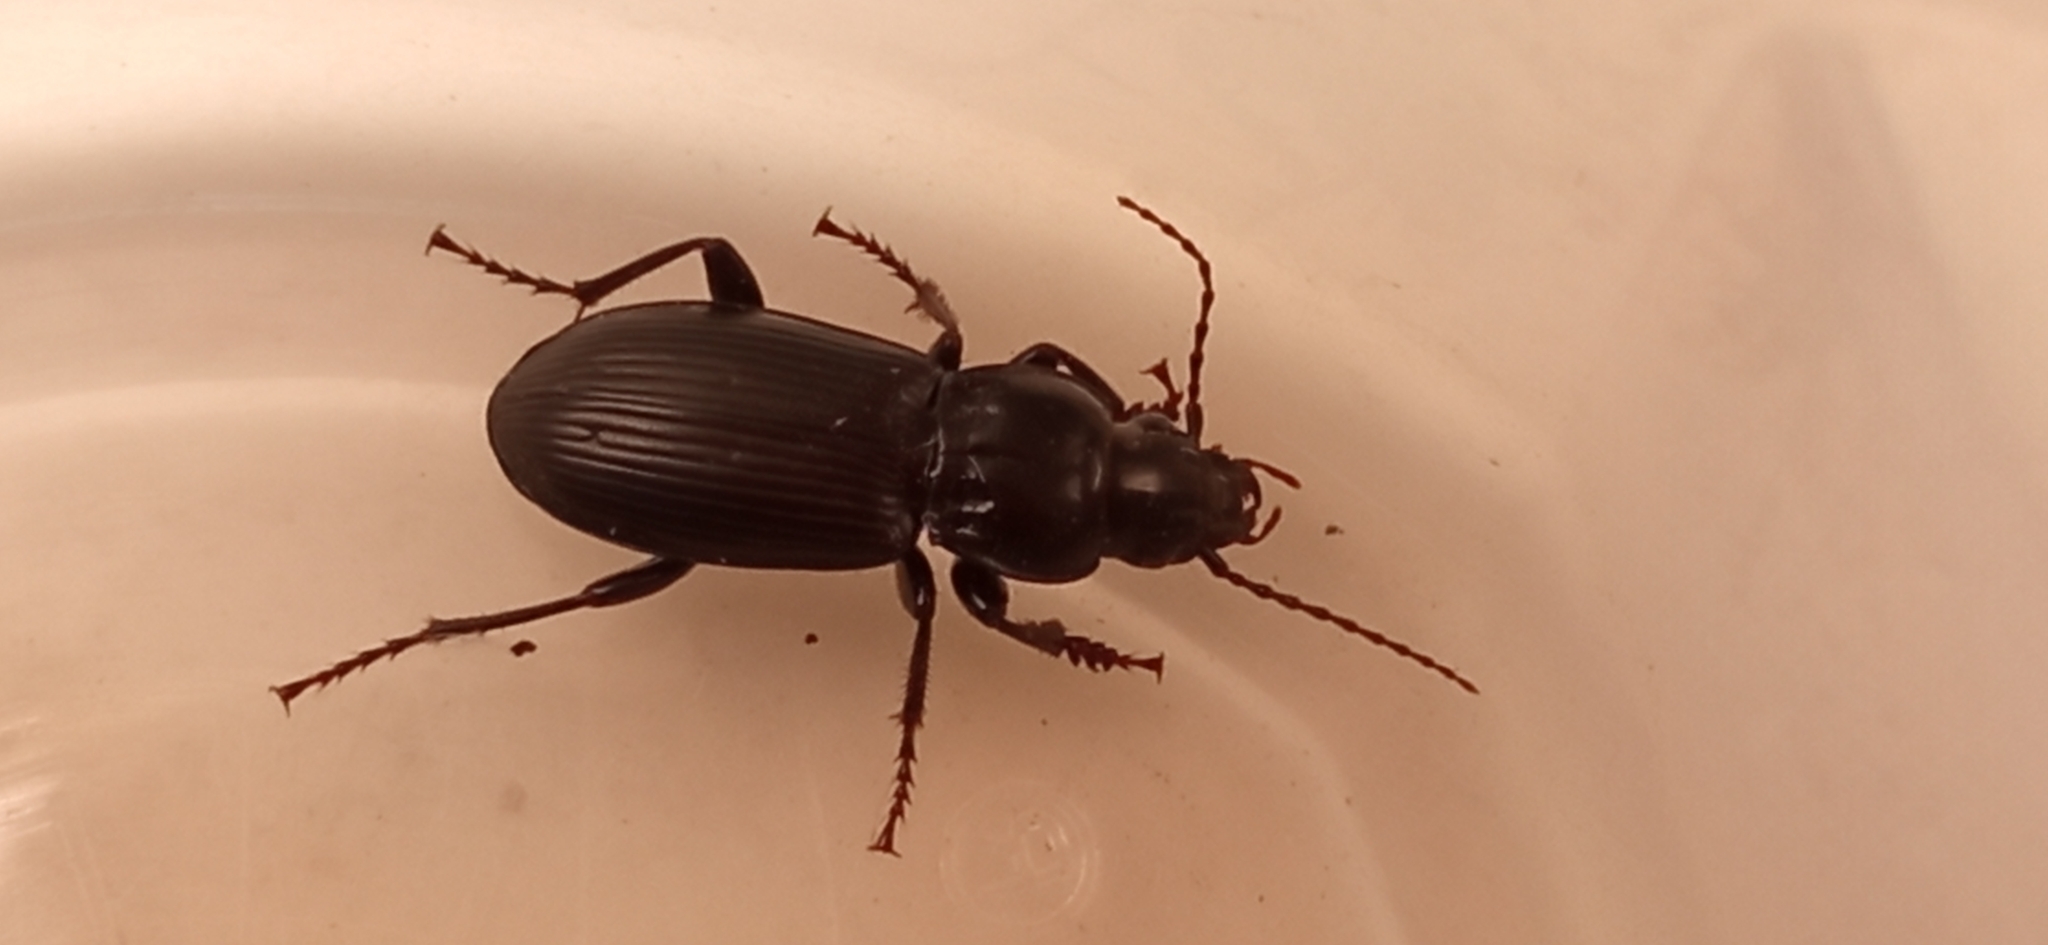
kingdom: Animalia
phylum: Arthropoda
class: Insecta
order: Coleoptera
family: Carabidae
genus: Pterostichus
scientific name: Pterostichus melanarius
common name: European dark harp ground beetle
